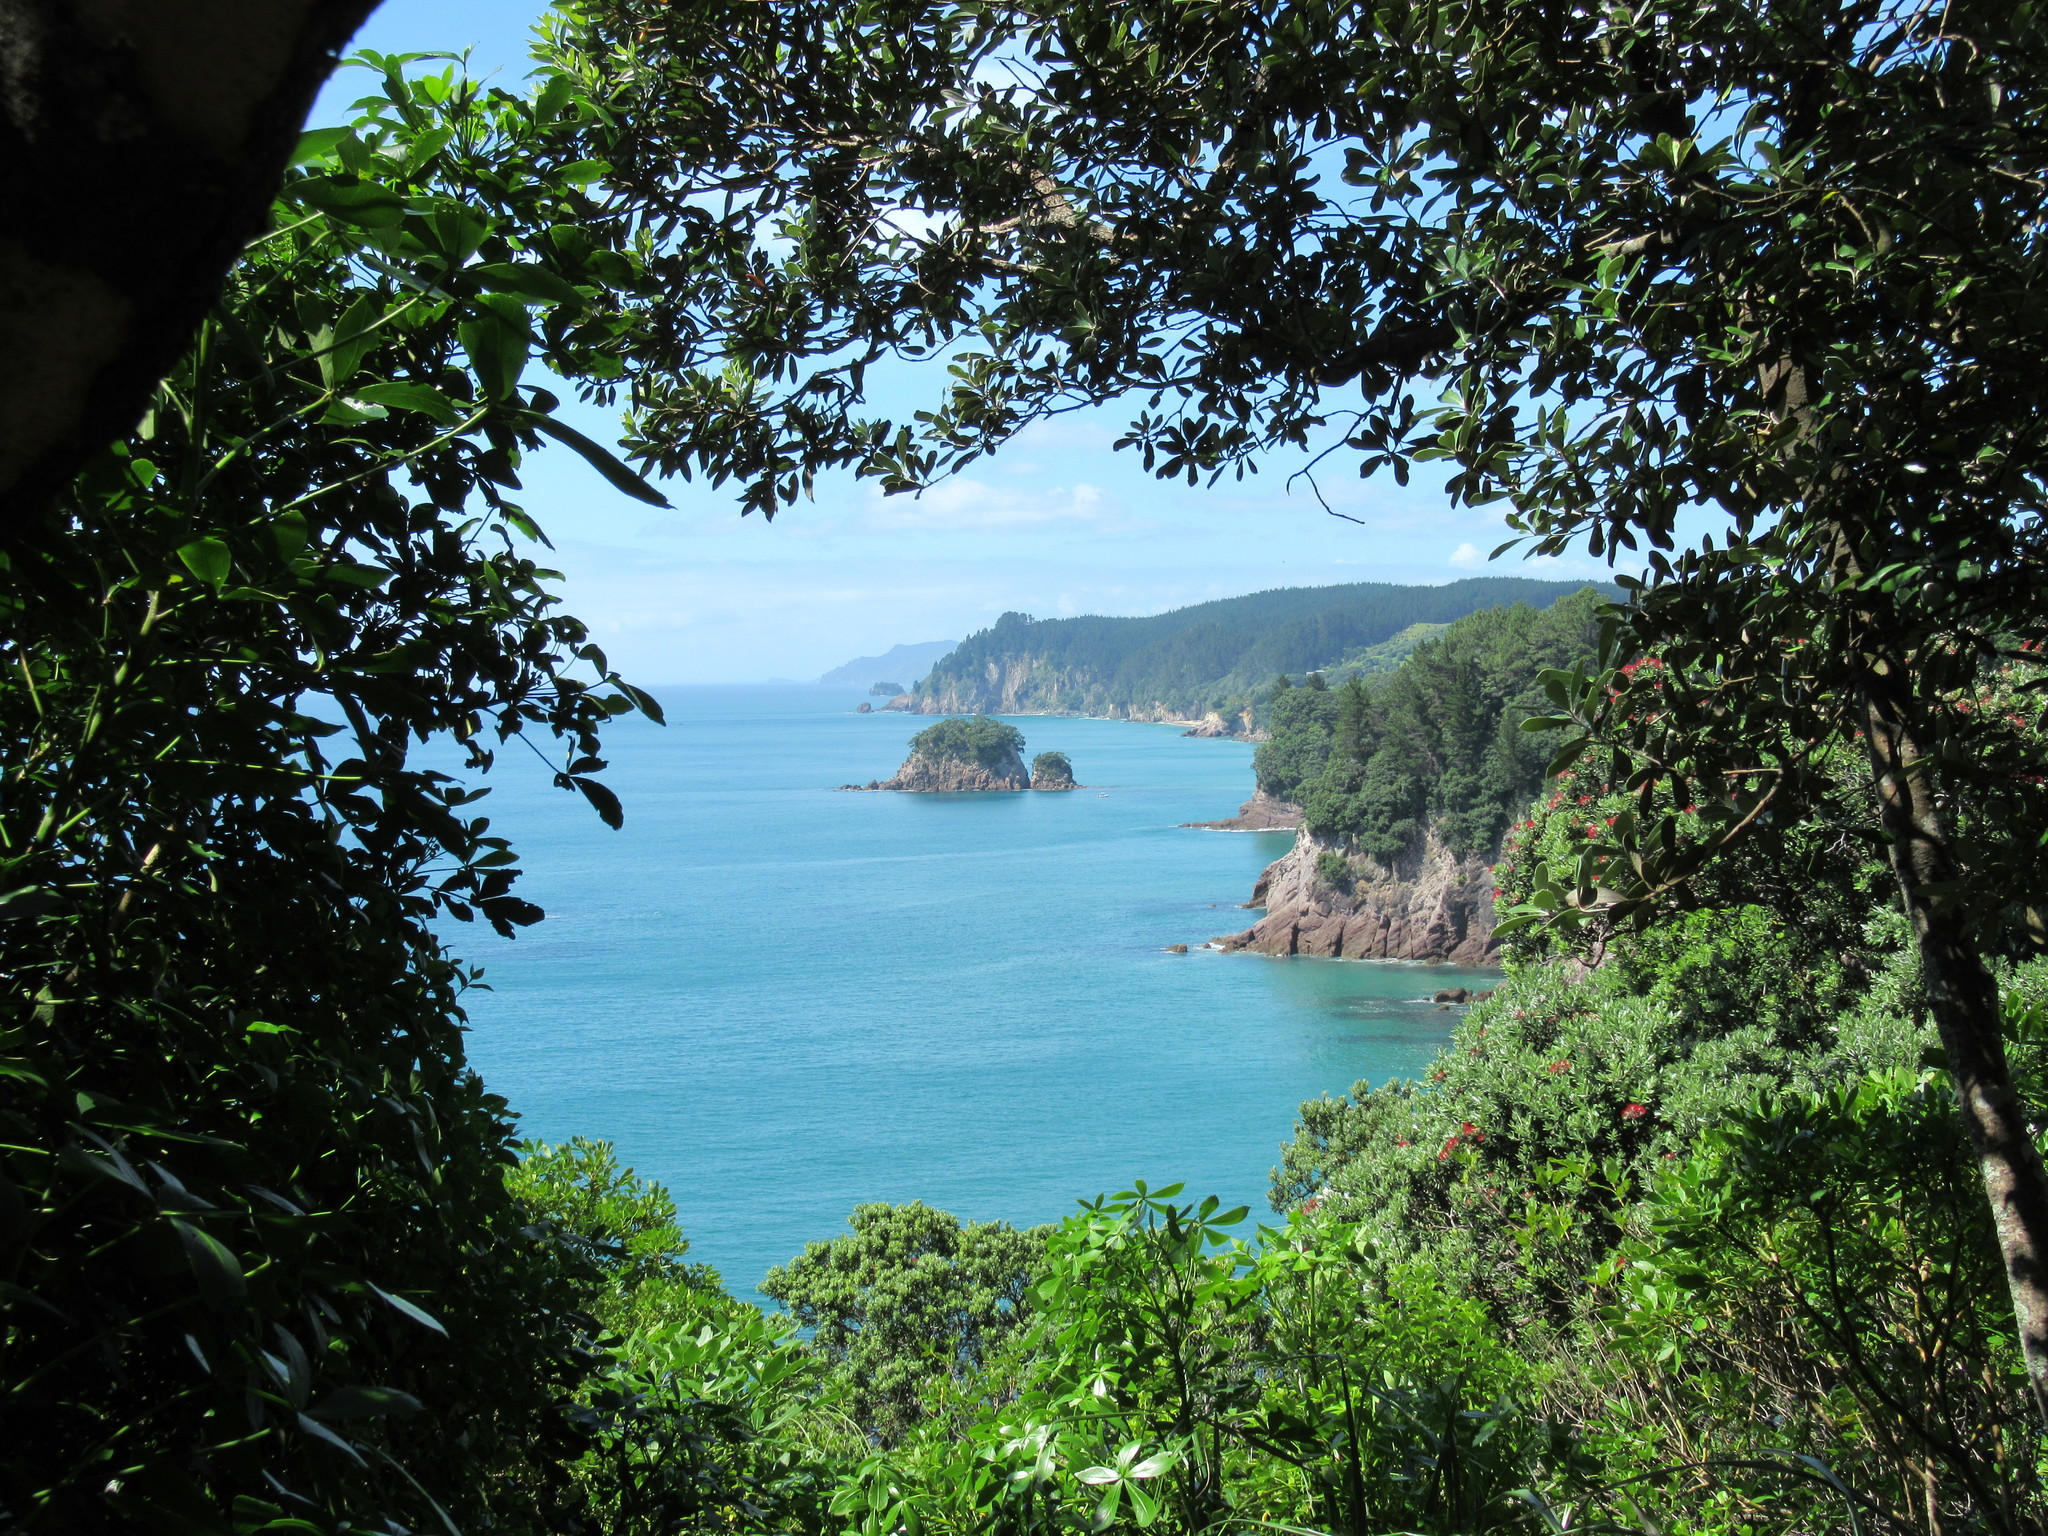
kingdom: Plantae
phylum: Tracheophyta
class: Magnoliopsida
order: Myrtales
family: Myrtaceae
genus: Metrosideros
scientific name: Metrosideros excelsa
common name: New zealand christmastree
